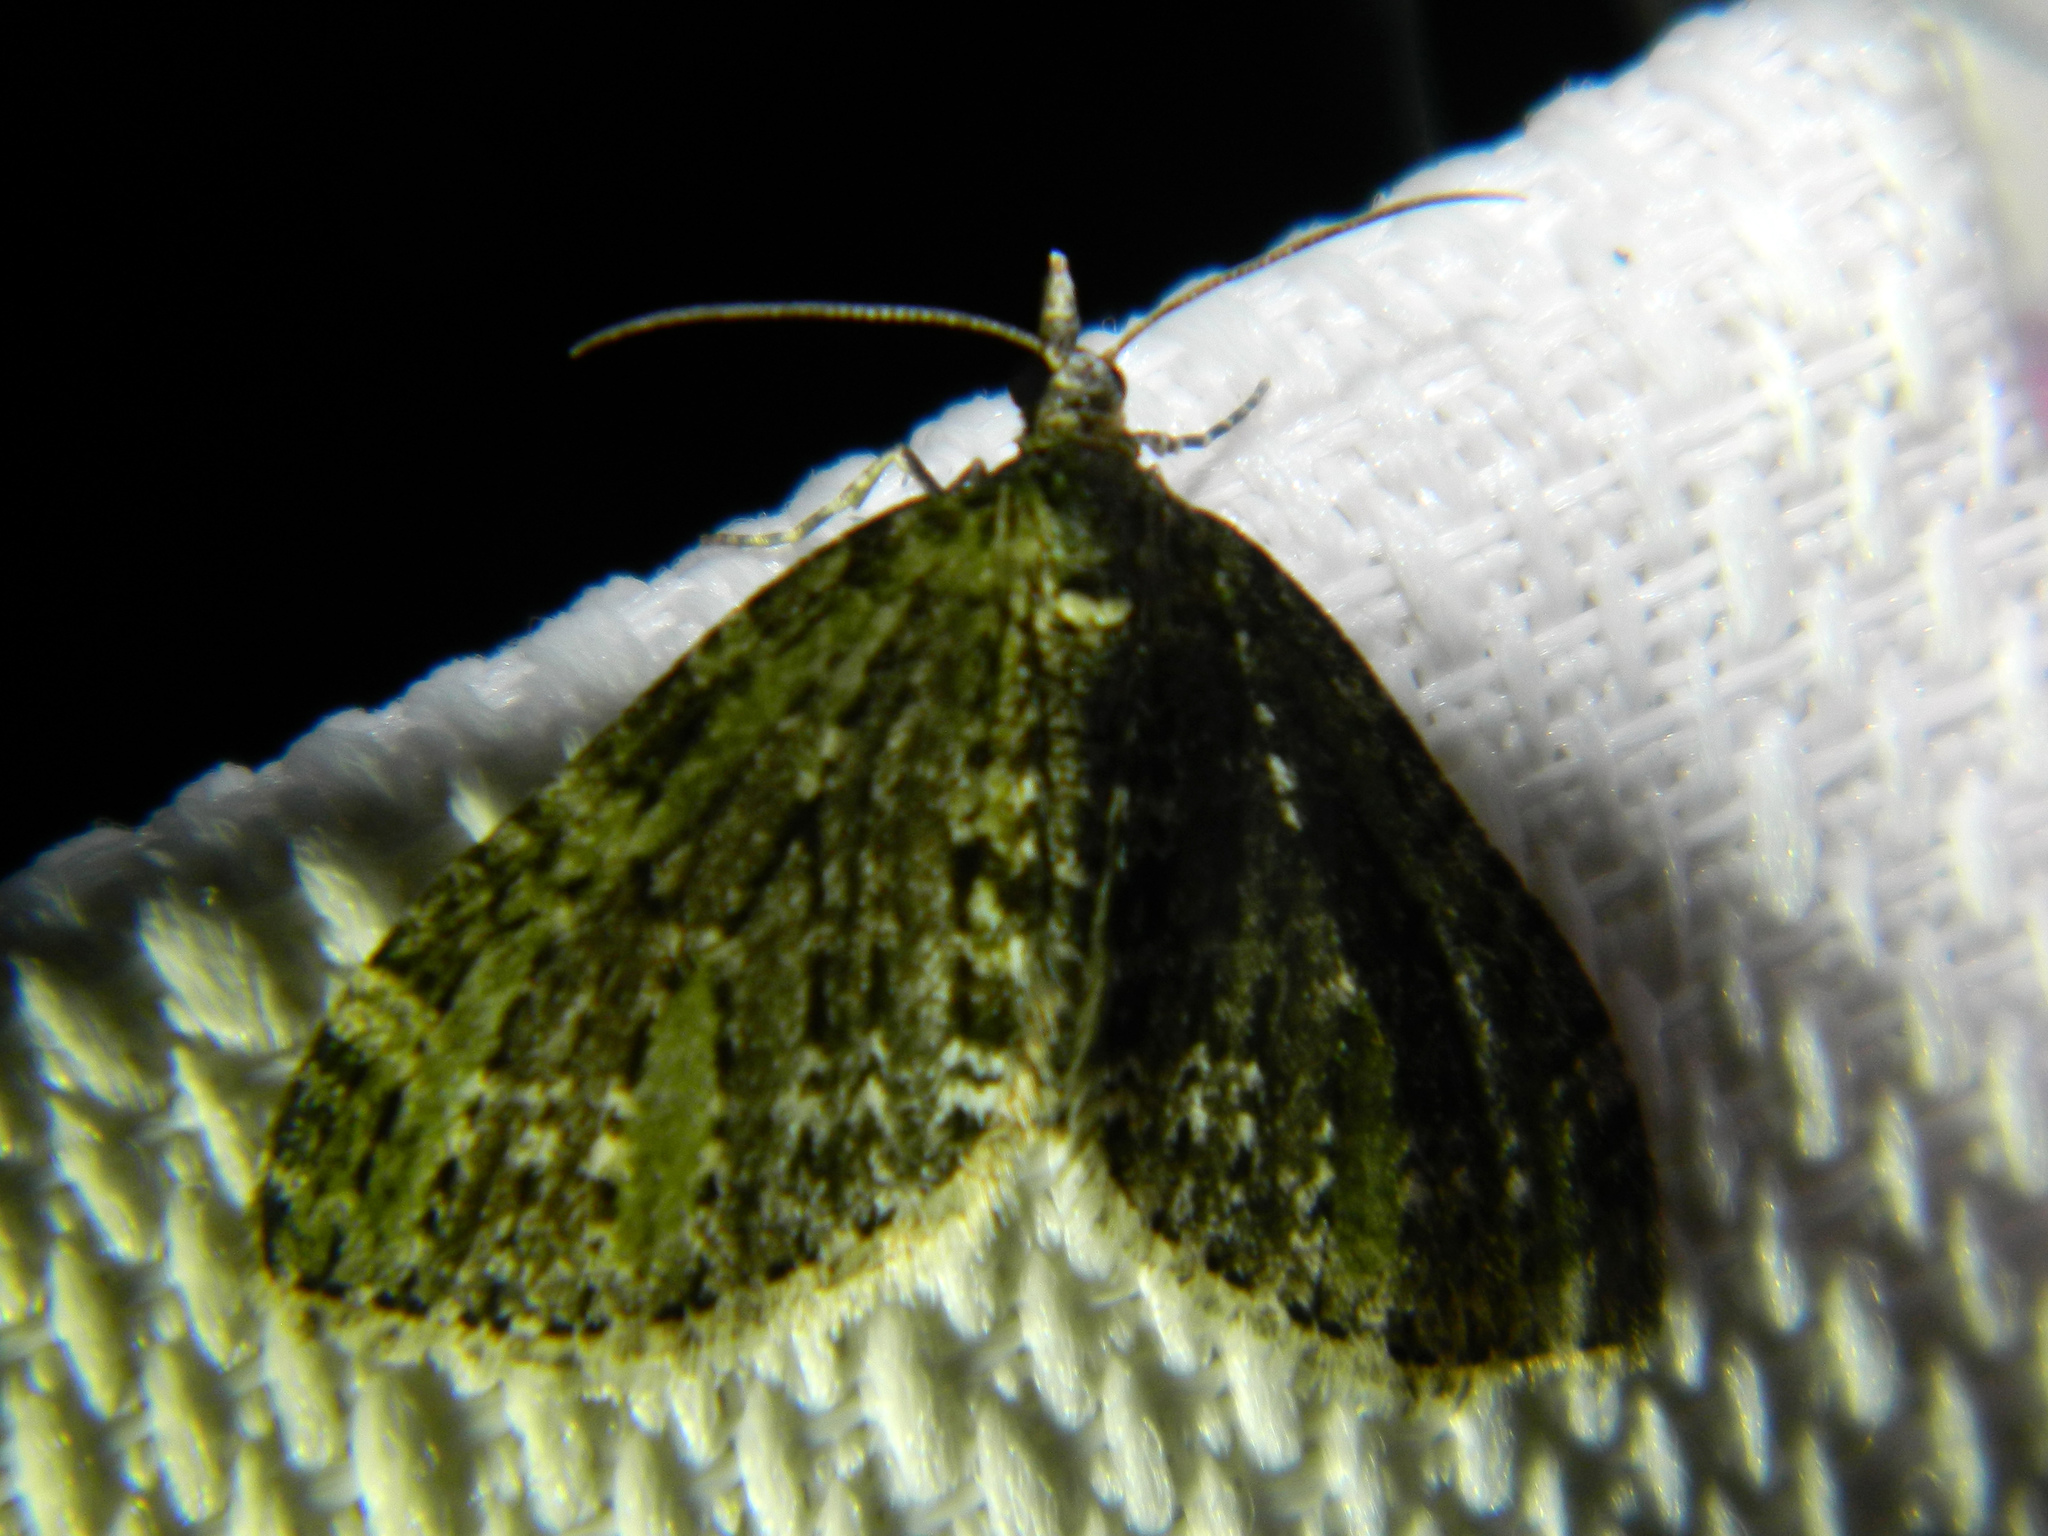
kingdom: Animalia
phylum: Arthropoda
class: Insecta
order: Lepidoptera
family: Geometridae
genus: Acasis
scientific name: Acasis viridata
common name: Olive-and-black carpet moth
